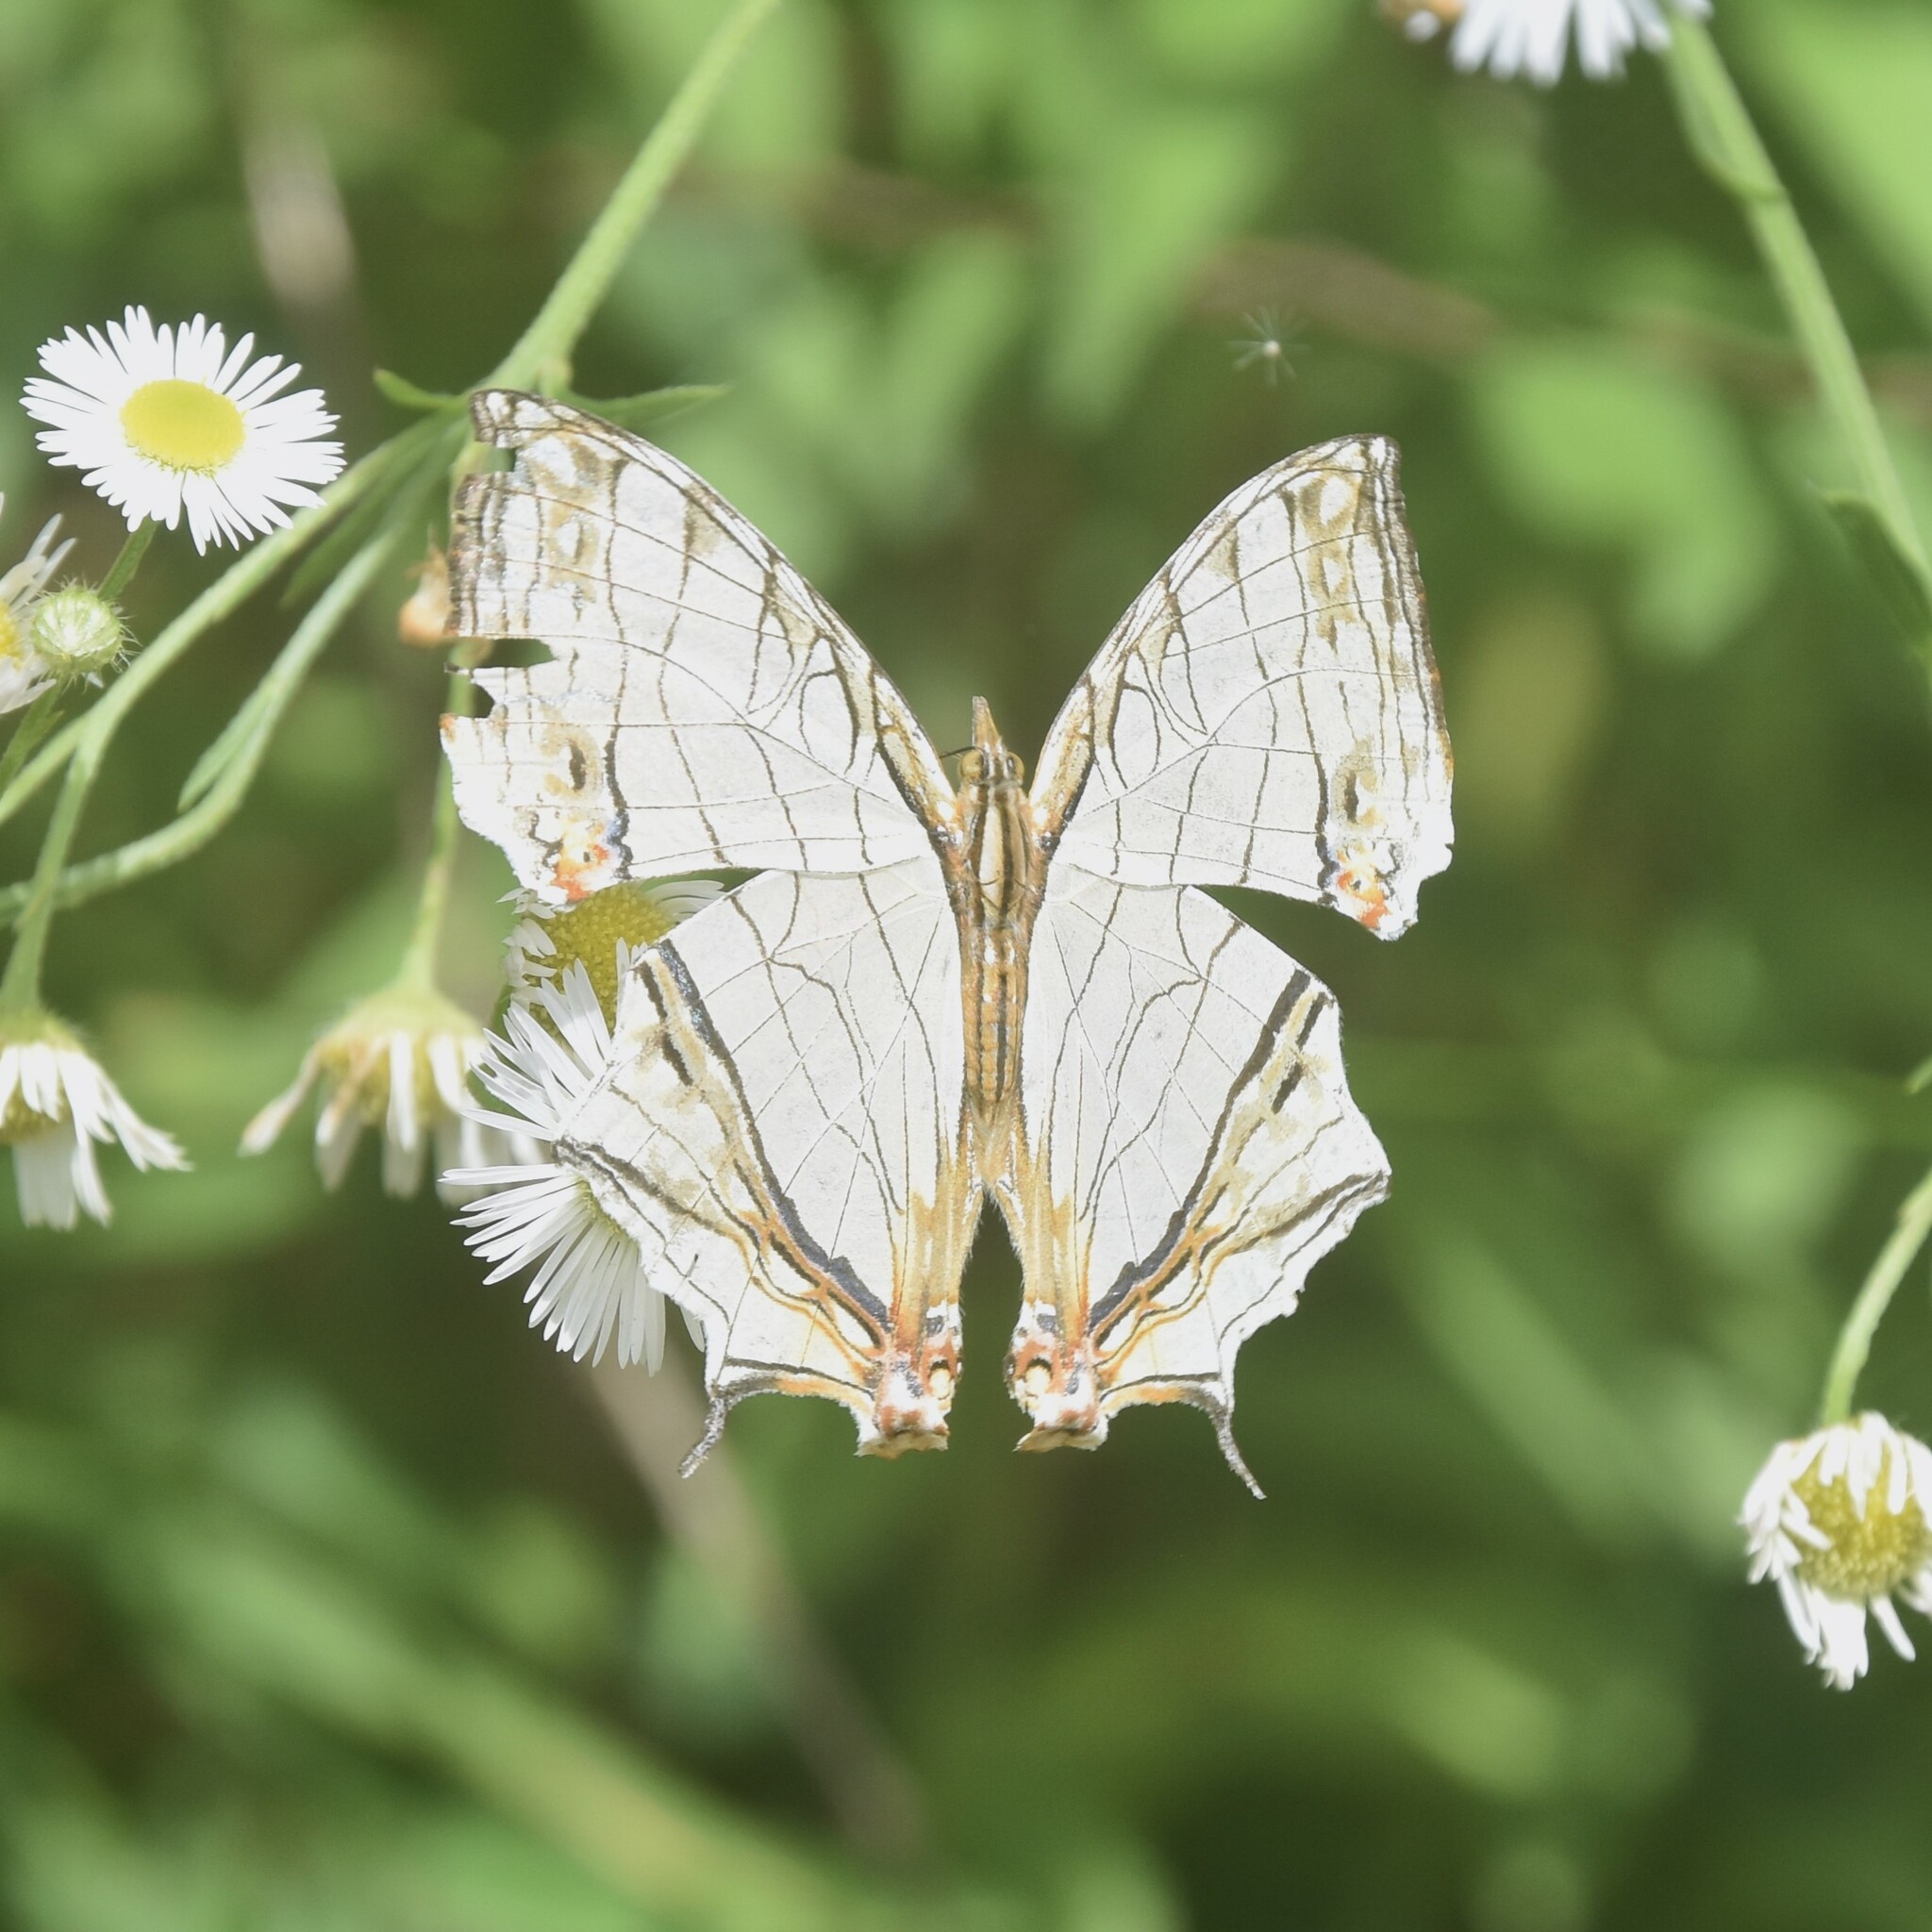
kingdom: Animalia
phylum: Arthropoda
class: Insecta
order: Lepidoptera
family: Nymphalidae
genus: Cyrestis
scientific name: Cyrestis thyodamas
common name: Common mapwing
